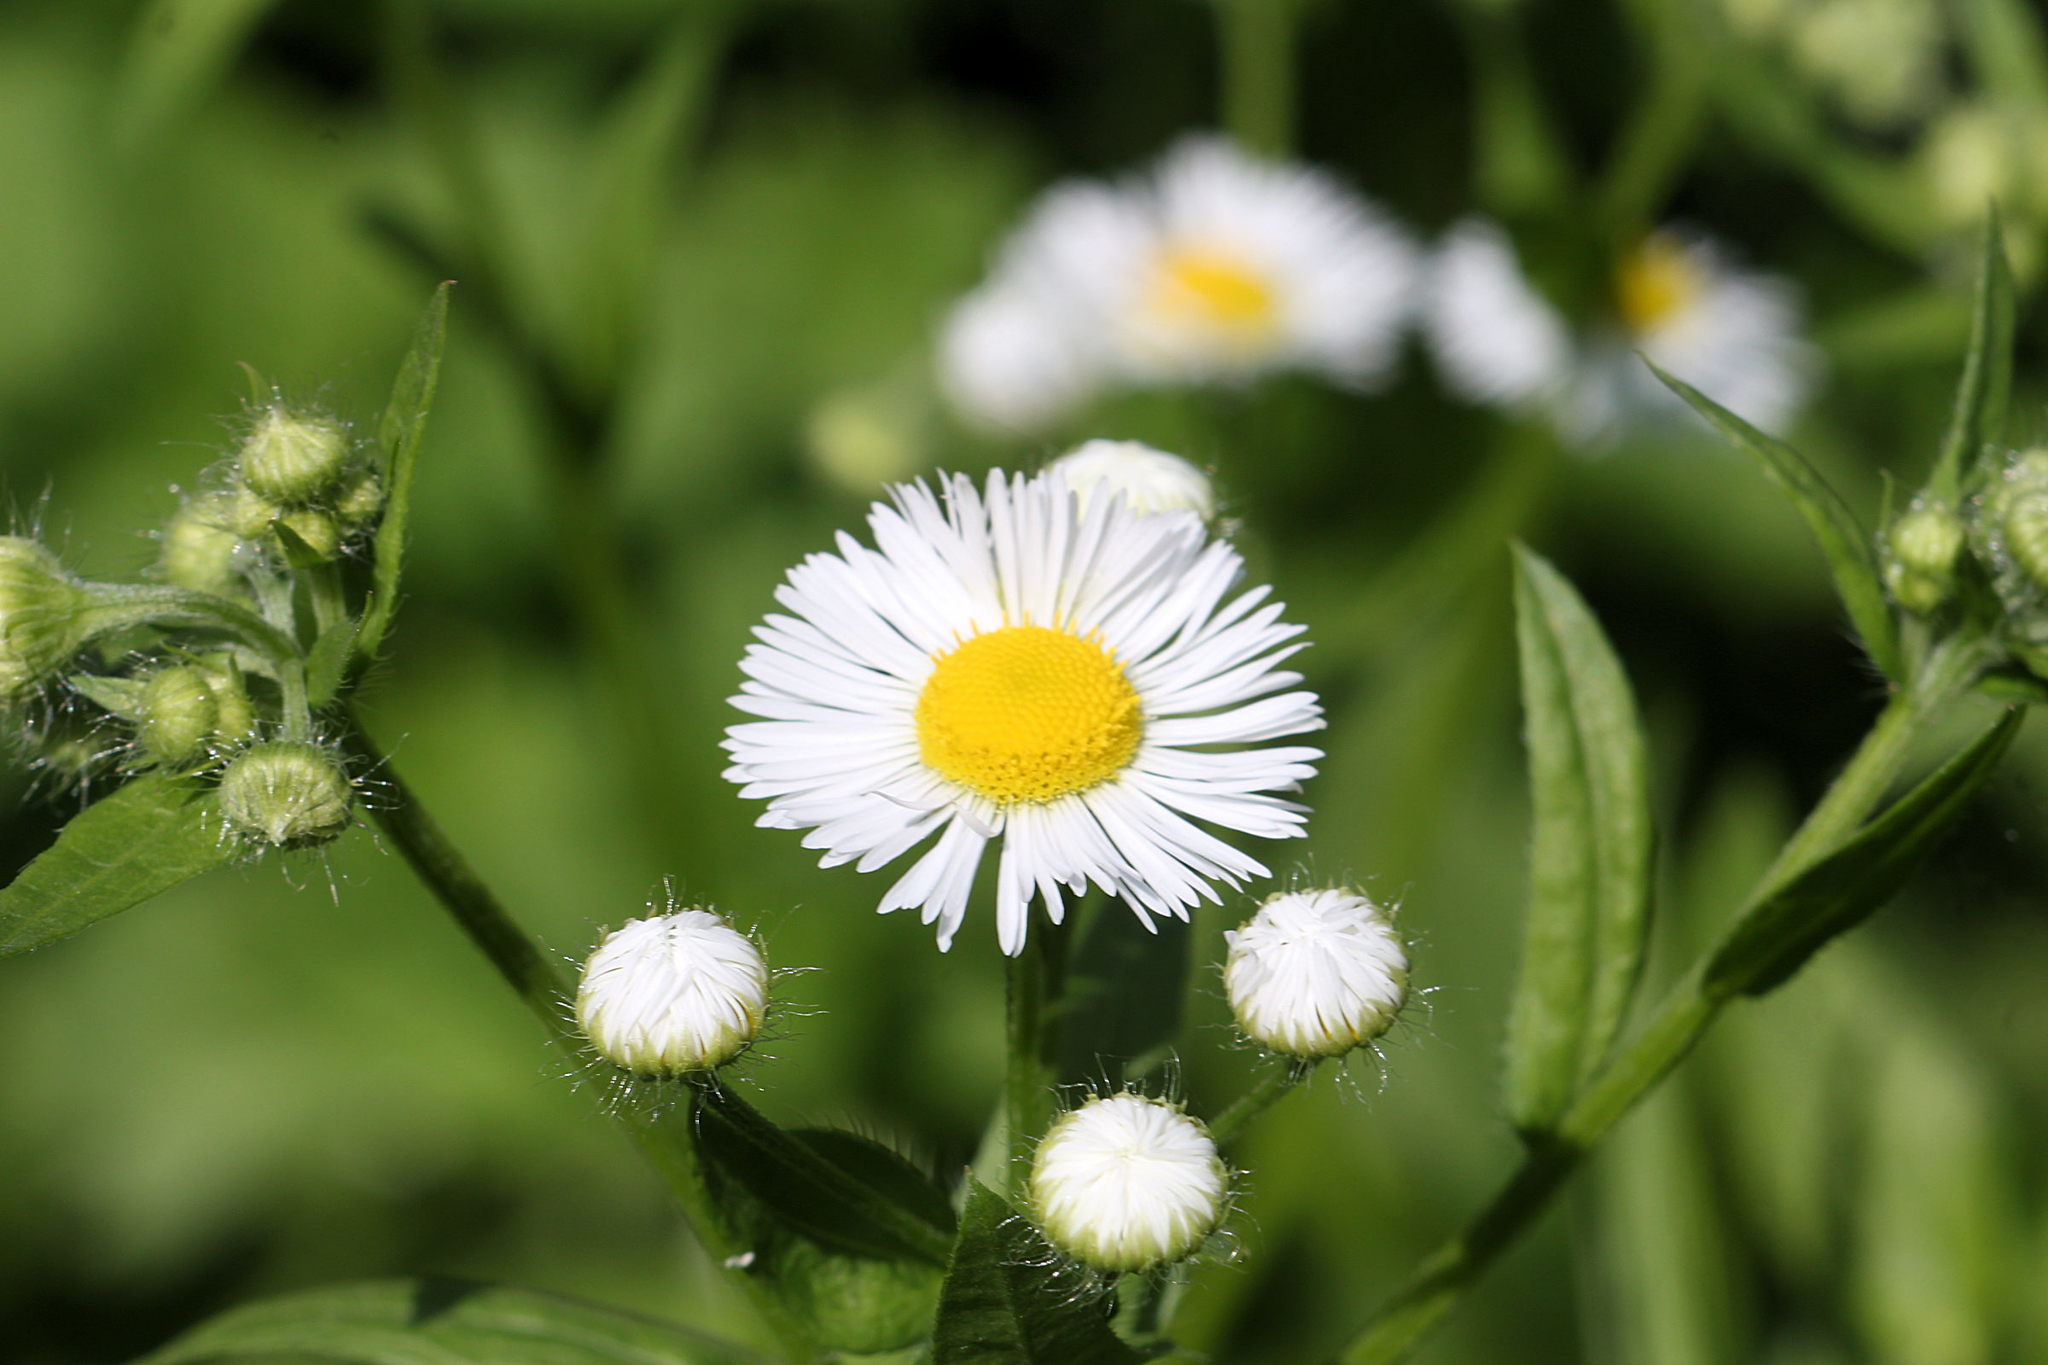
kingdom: Plantae
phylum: Tracheophyta
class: Magnoliopsida
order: Asterales
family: Asteraceae
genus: Erigeron
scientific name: Erigeron annuus
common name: Tall fleabane
